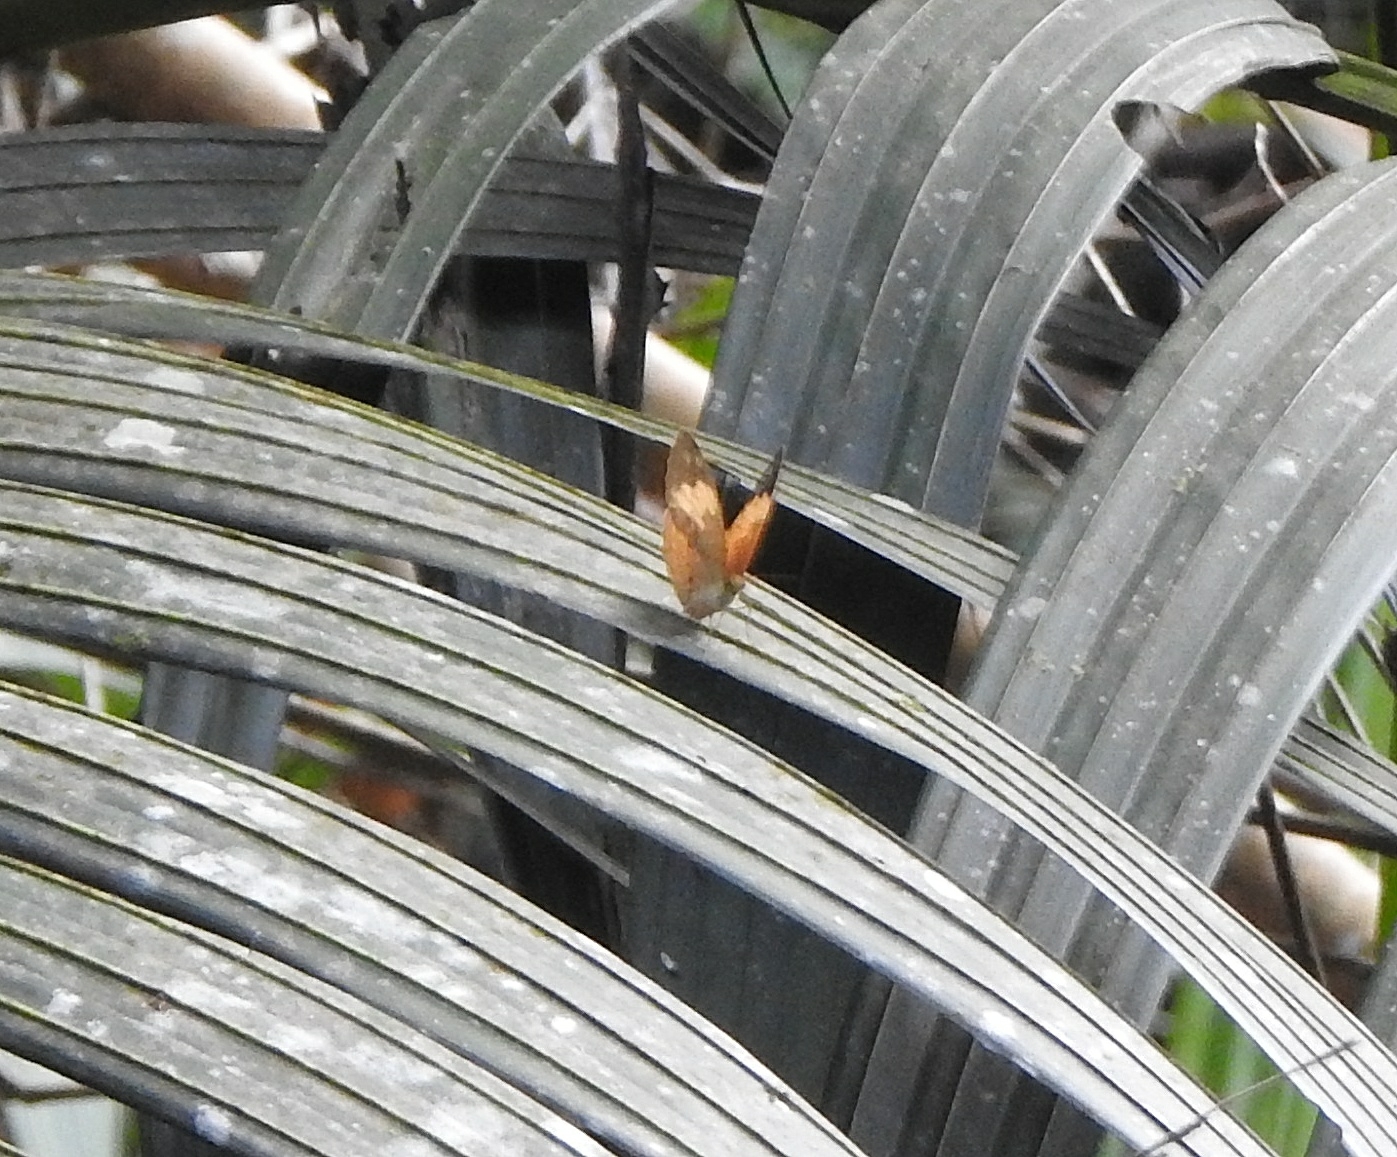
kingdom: Animalia
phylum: Arthropoda
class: Insecta
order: Lepidoptera
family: Nymphalidae
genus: Cupha
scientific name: Cupha erymanthis
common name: Rustic
